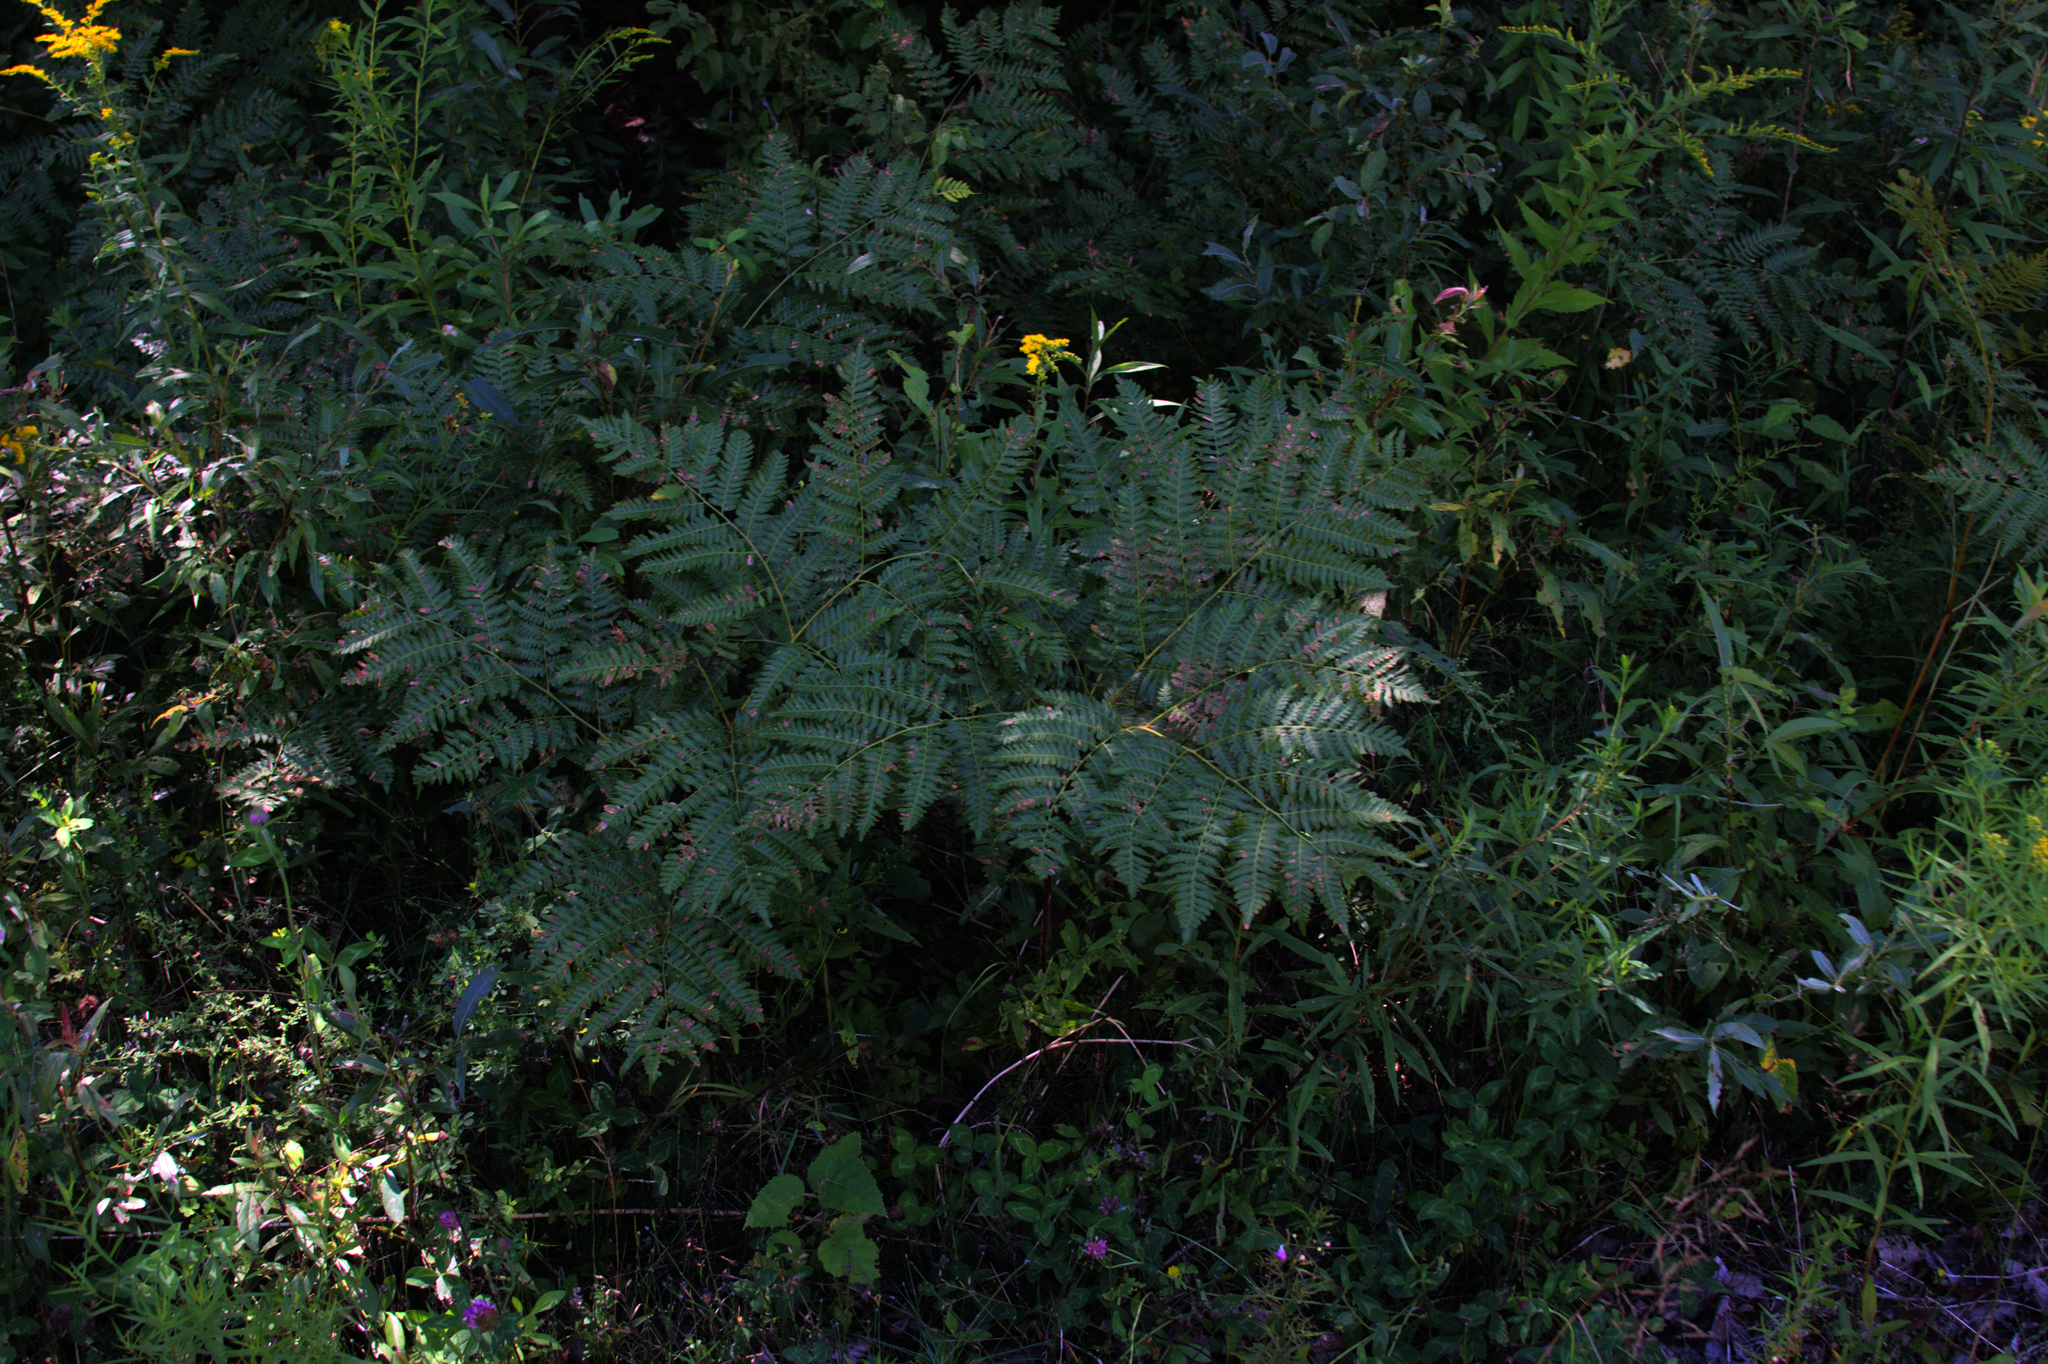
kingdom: Plantae
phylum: Tracheophyta
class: Polypodiopsida
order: Polypodiales
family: Dennstaedtiaceae
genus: Pteridium
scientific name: Pteridium aquilinum
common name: Bracken
